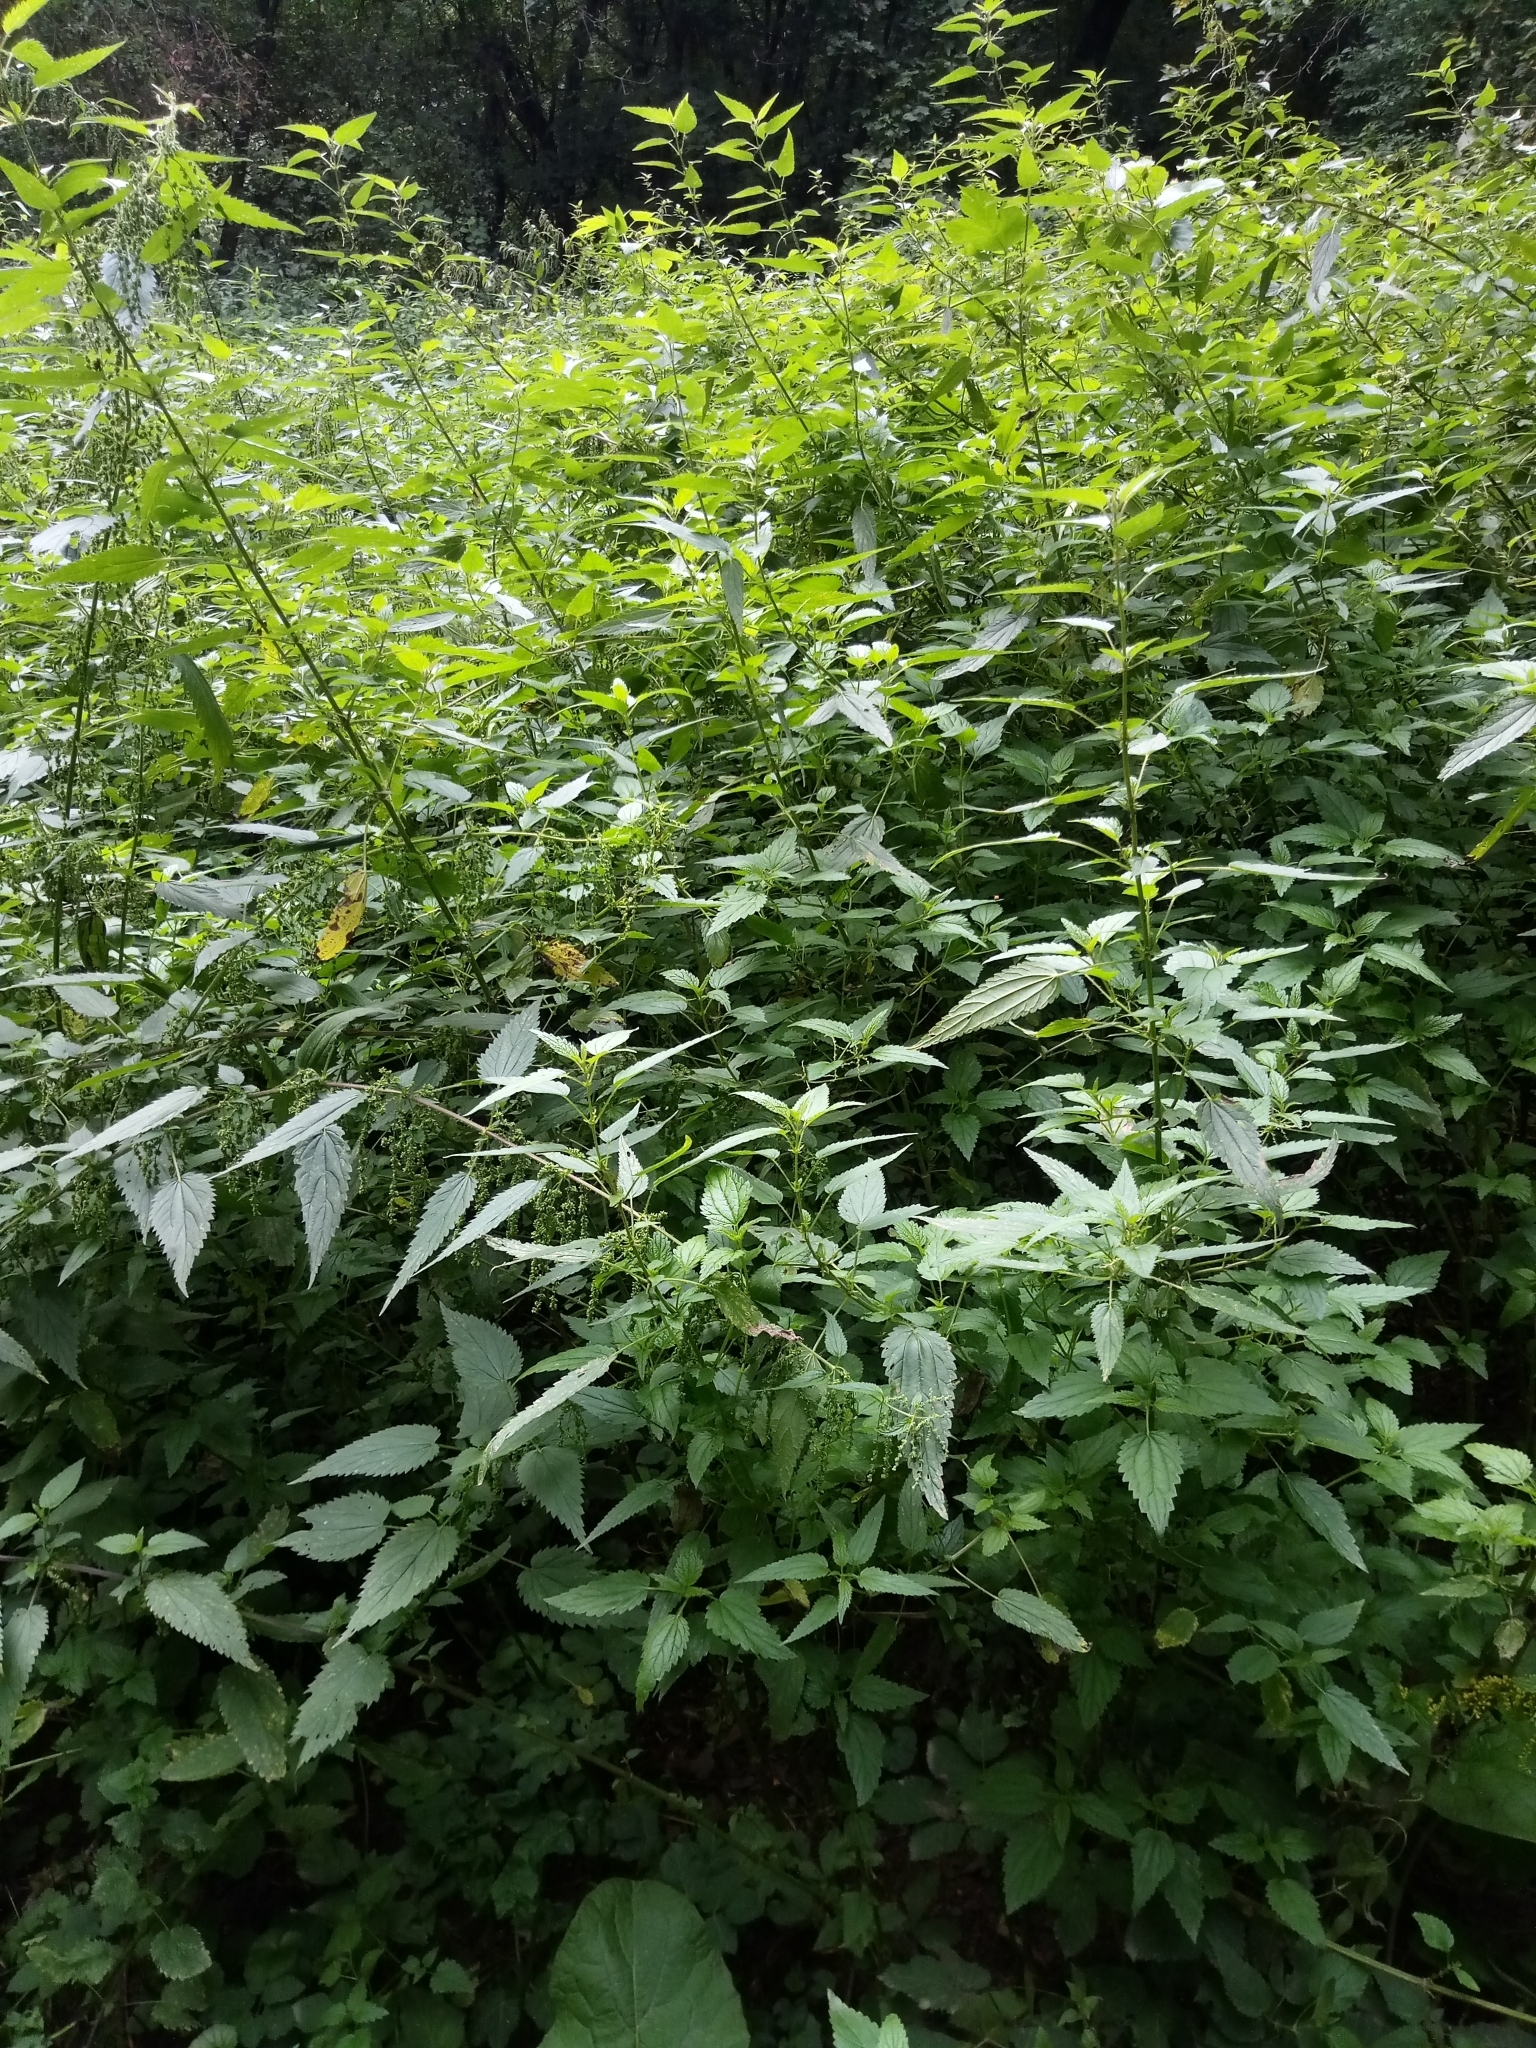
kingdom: Plantae
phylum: Tracheophyta
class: Magnoliopsida
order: Rosales
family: Urticaceae
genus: Urtica
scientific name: Urtica dioica
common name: Common nettle
